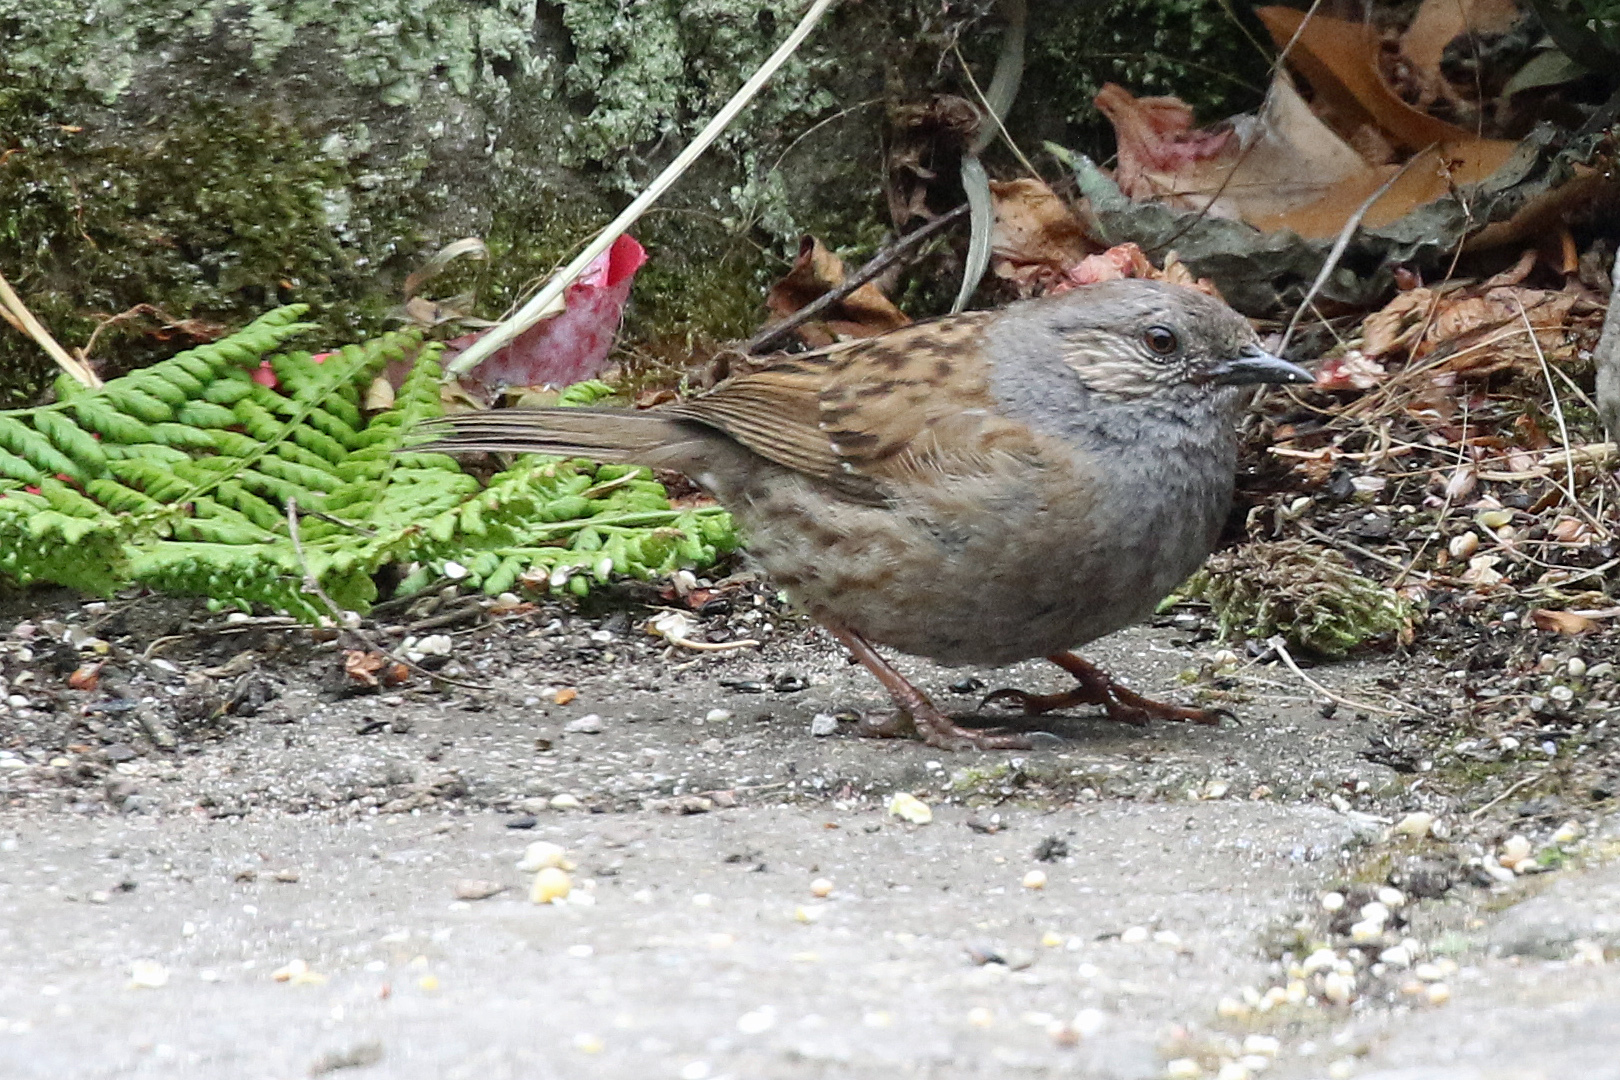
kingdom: Animalia
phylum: Chordata
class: Aves
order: Passeriformes
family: Prunellidae
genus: Prunella
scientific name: Prunella modularis
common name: Dunnock
